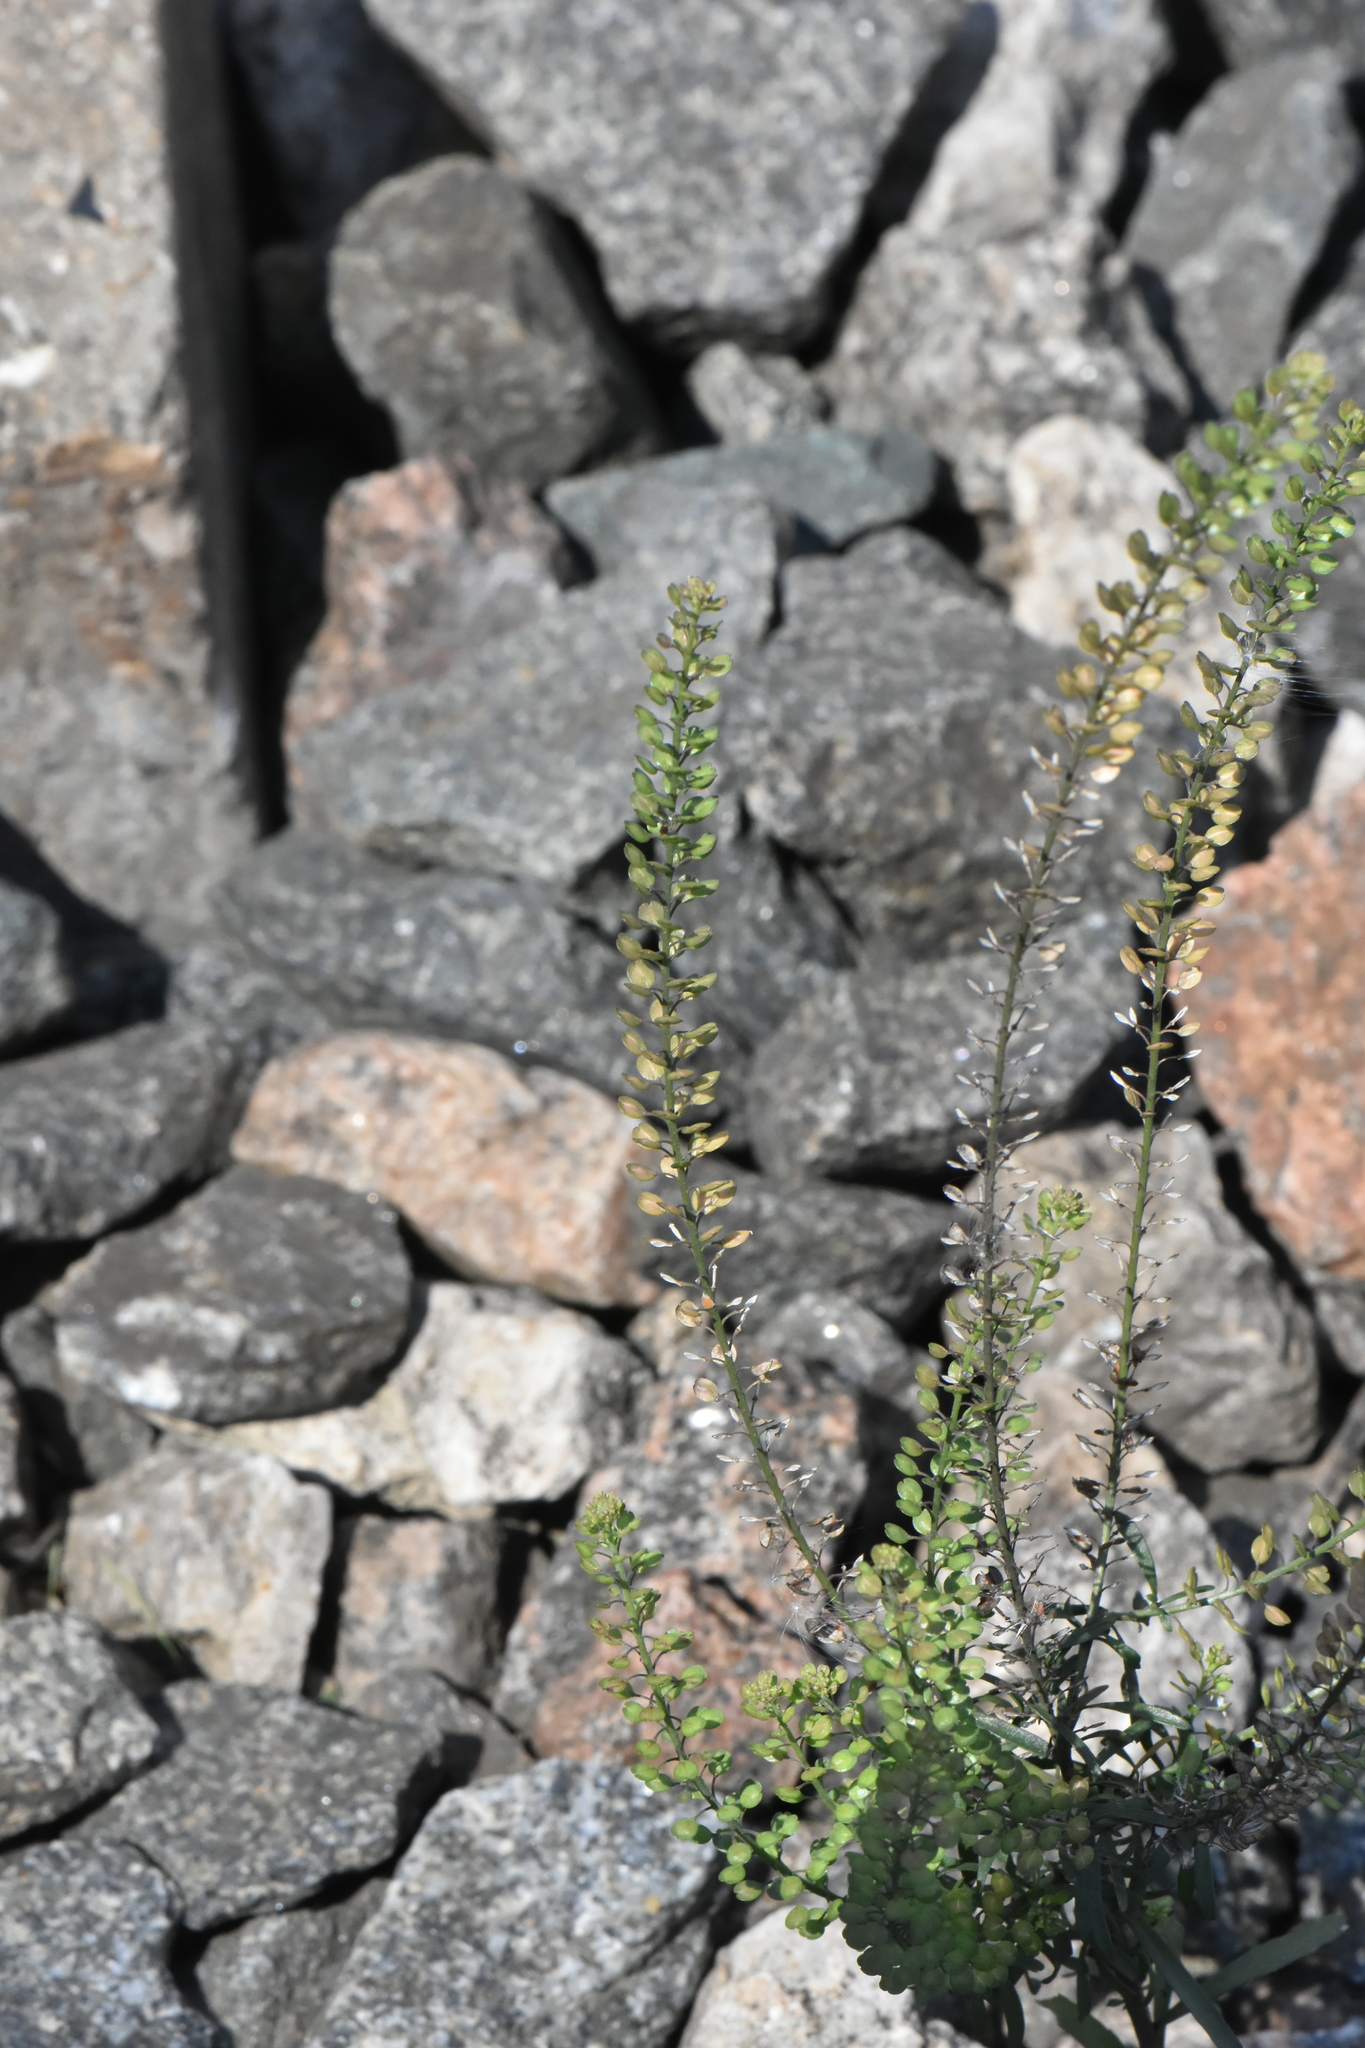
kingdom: Plantae
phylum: Tracheophyta
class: Magnoliopsida
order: Brassicales
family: Brassicaceae
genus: Lepidium
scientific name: Lepidium densiflorum
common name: Miner's pepperwort
